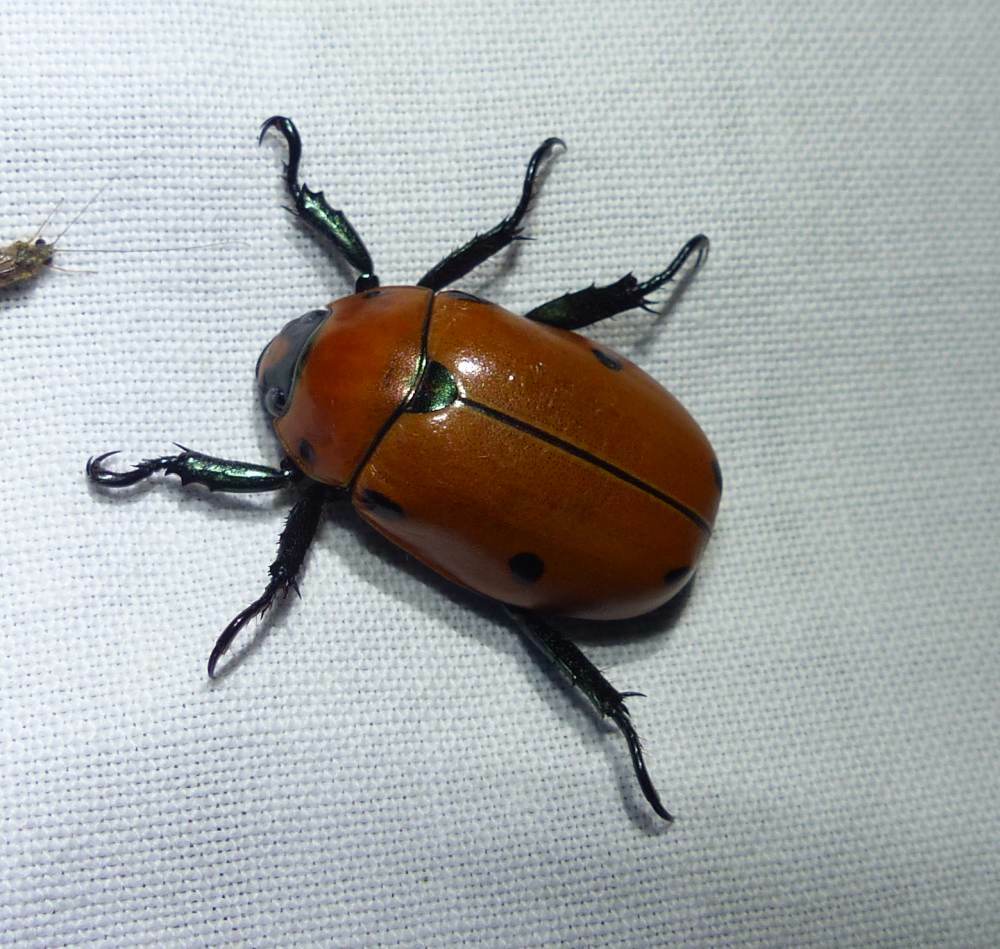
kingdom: Animalia
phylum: Arthropoda
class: Insecta
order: Coleoptera
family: Scarabaeidae
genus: Pelidnota
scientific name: Pelidnota punctata
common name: Grapevine beetle
